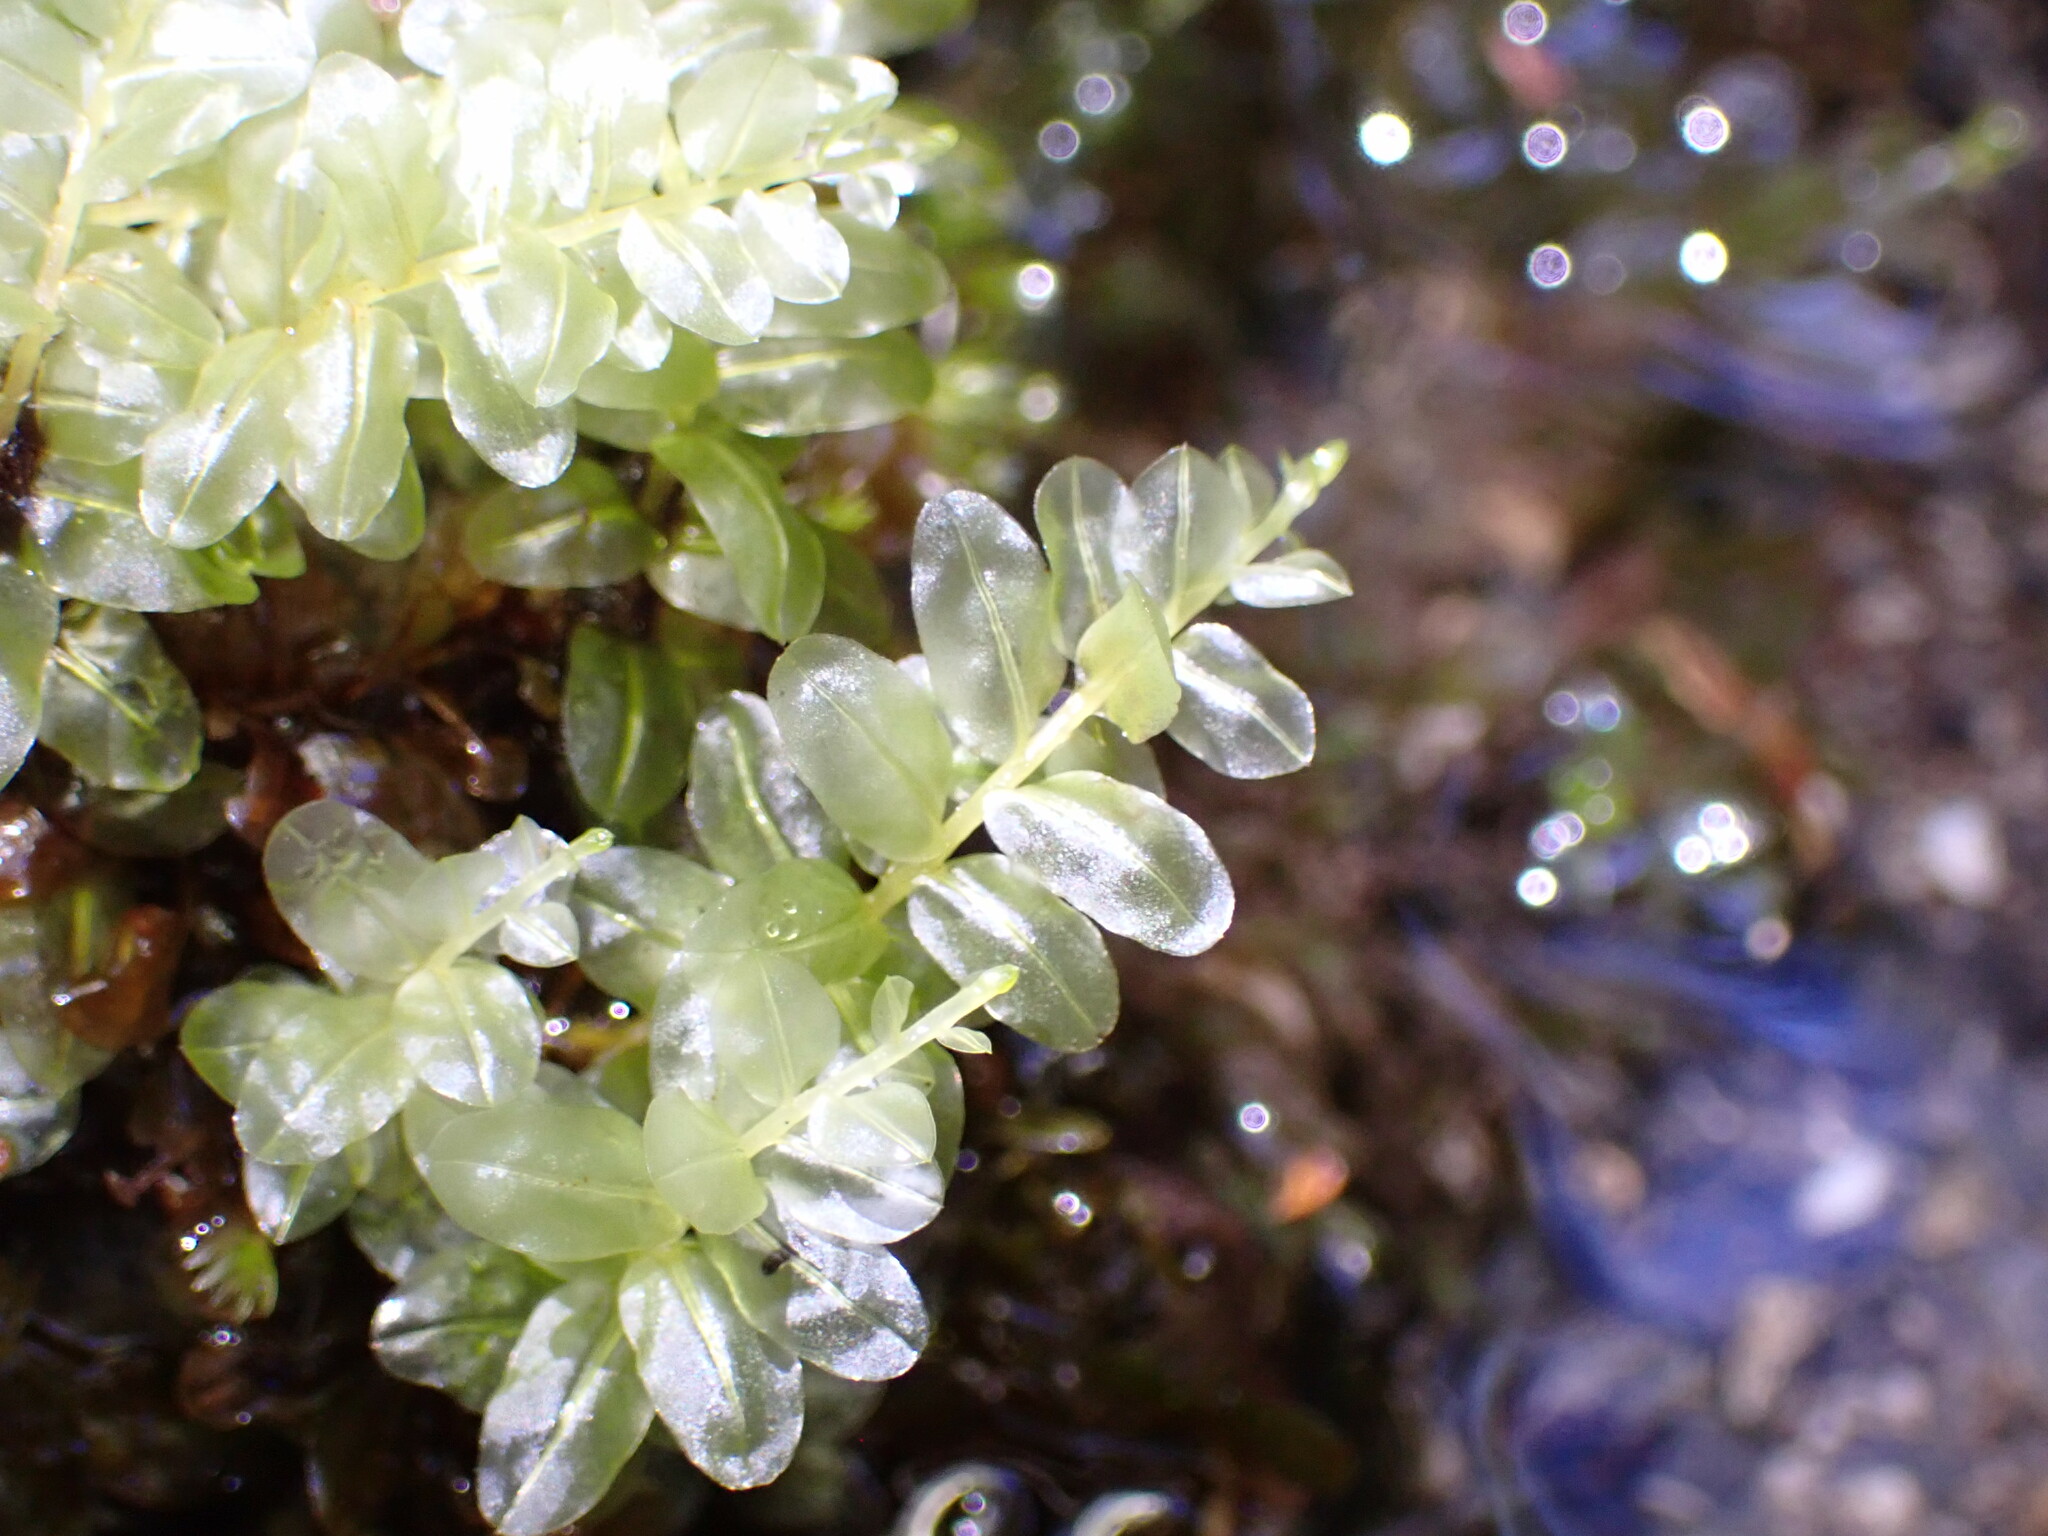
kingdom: Plantae
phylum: Bryophyta
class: Bryopsida
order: Bryales
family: Mniaceae
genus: Plagiomnium
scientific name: Plagiomnium novae-zealandiae
